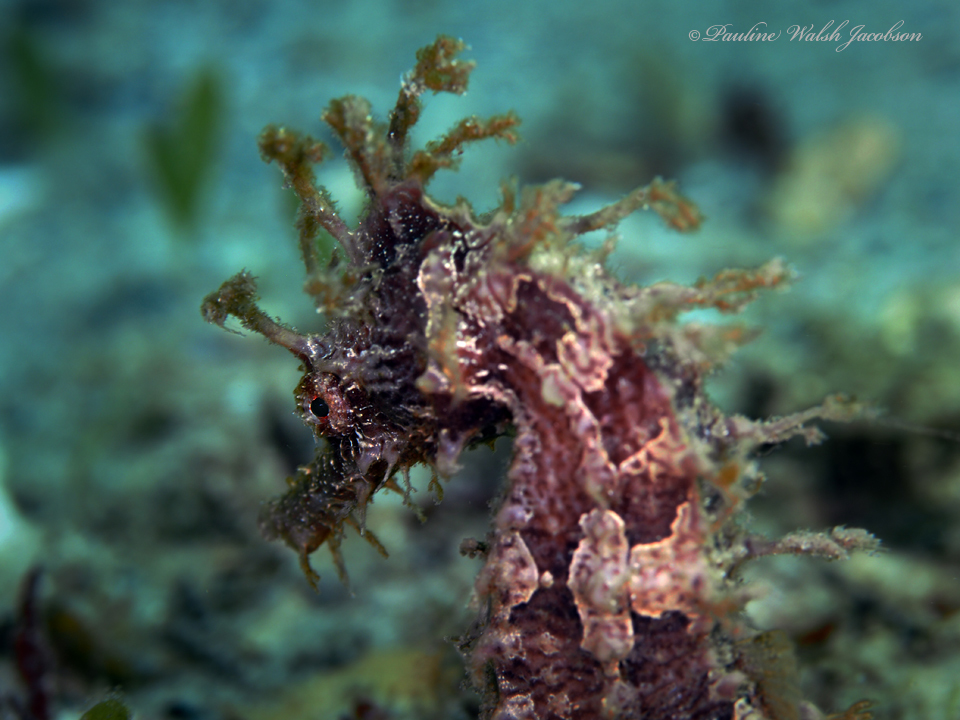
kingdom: Animalia
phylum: Chordata
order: Syngnathiformes
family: Syngnathidae
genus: Hippocampus
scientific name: Hippocampus erectus
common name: Lined seahorse
